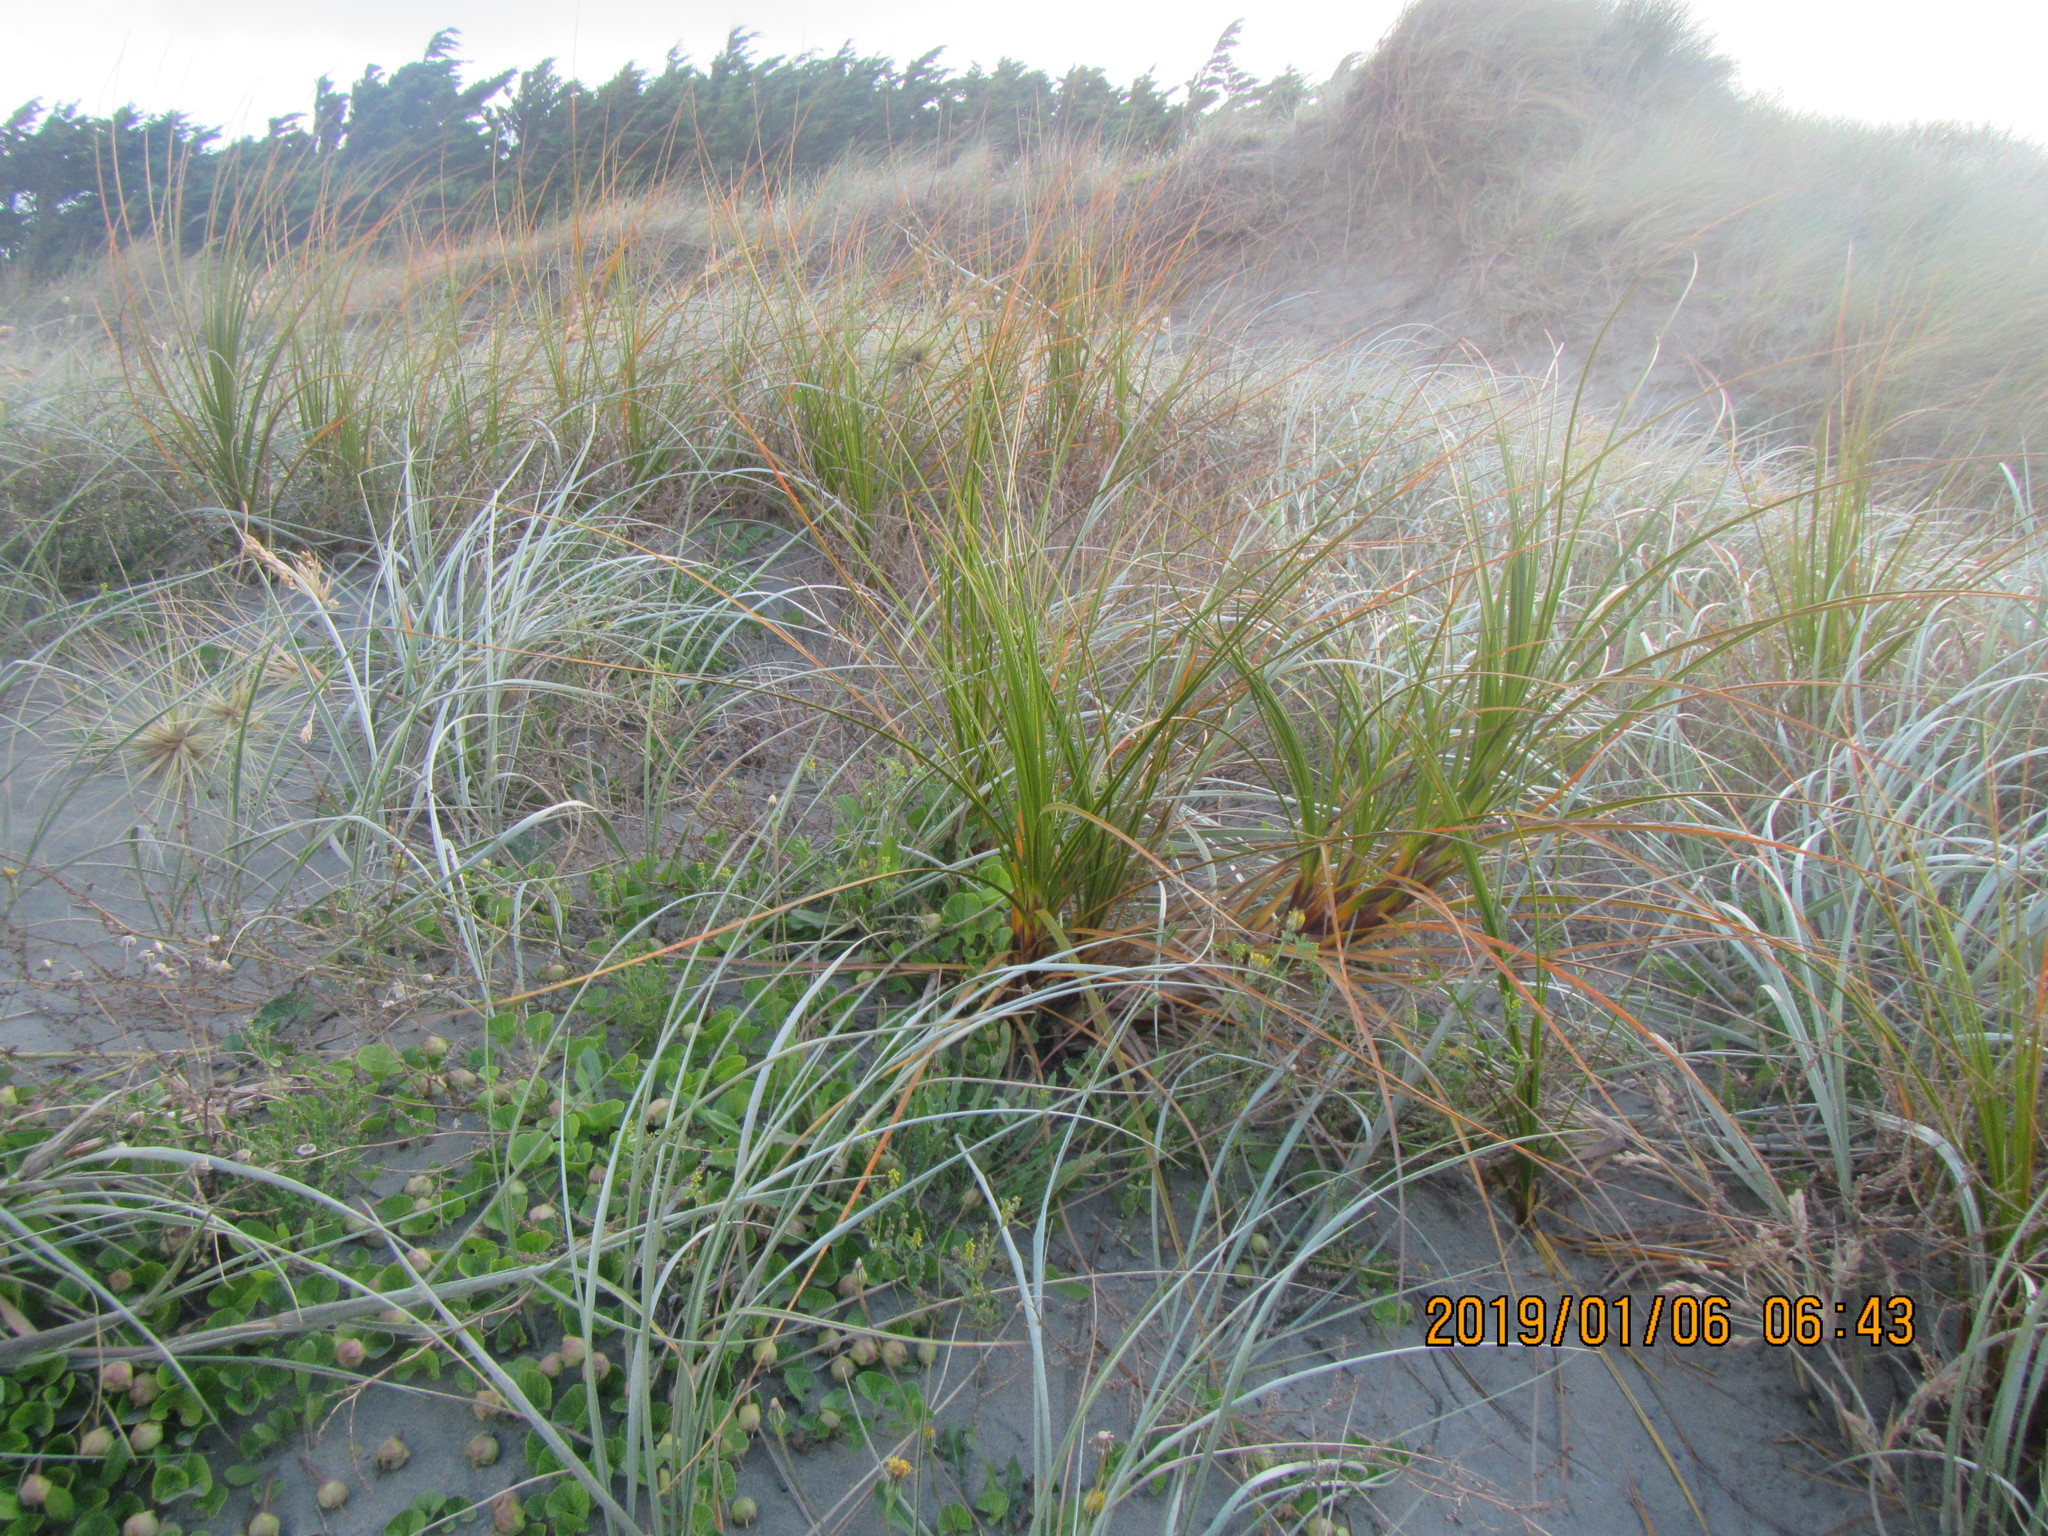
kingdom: Plantae
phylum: Tracheophyta
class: Liliopsida
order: Poales
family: Cyperaceae
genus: Ficinia
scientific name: Ficinia spiralis
